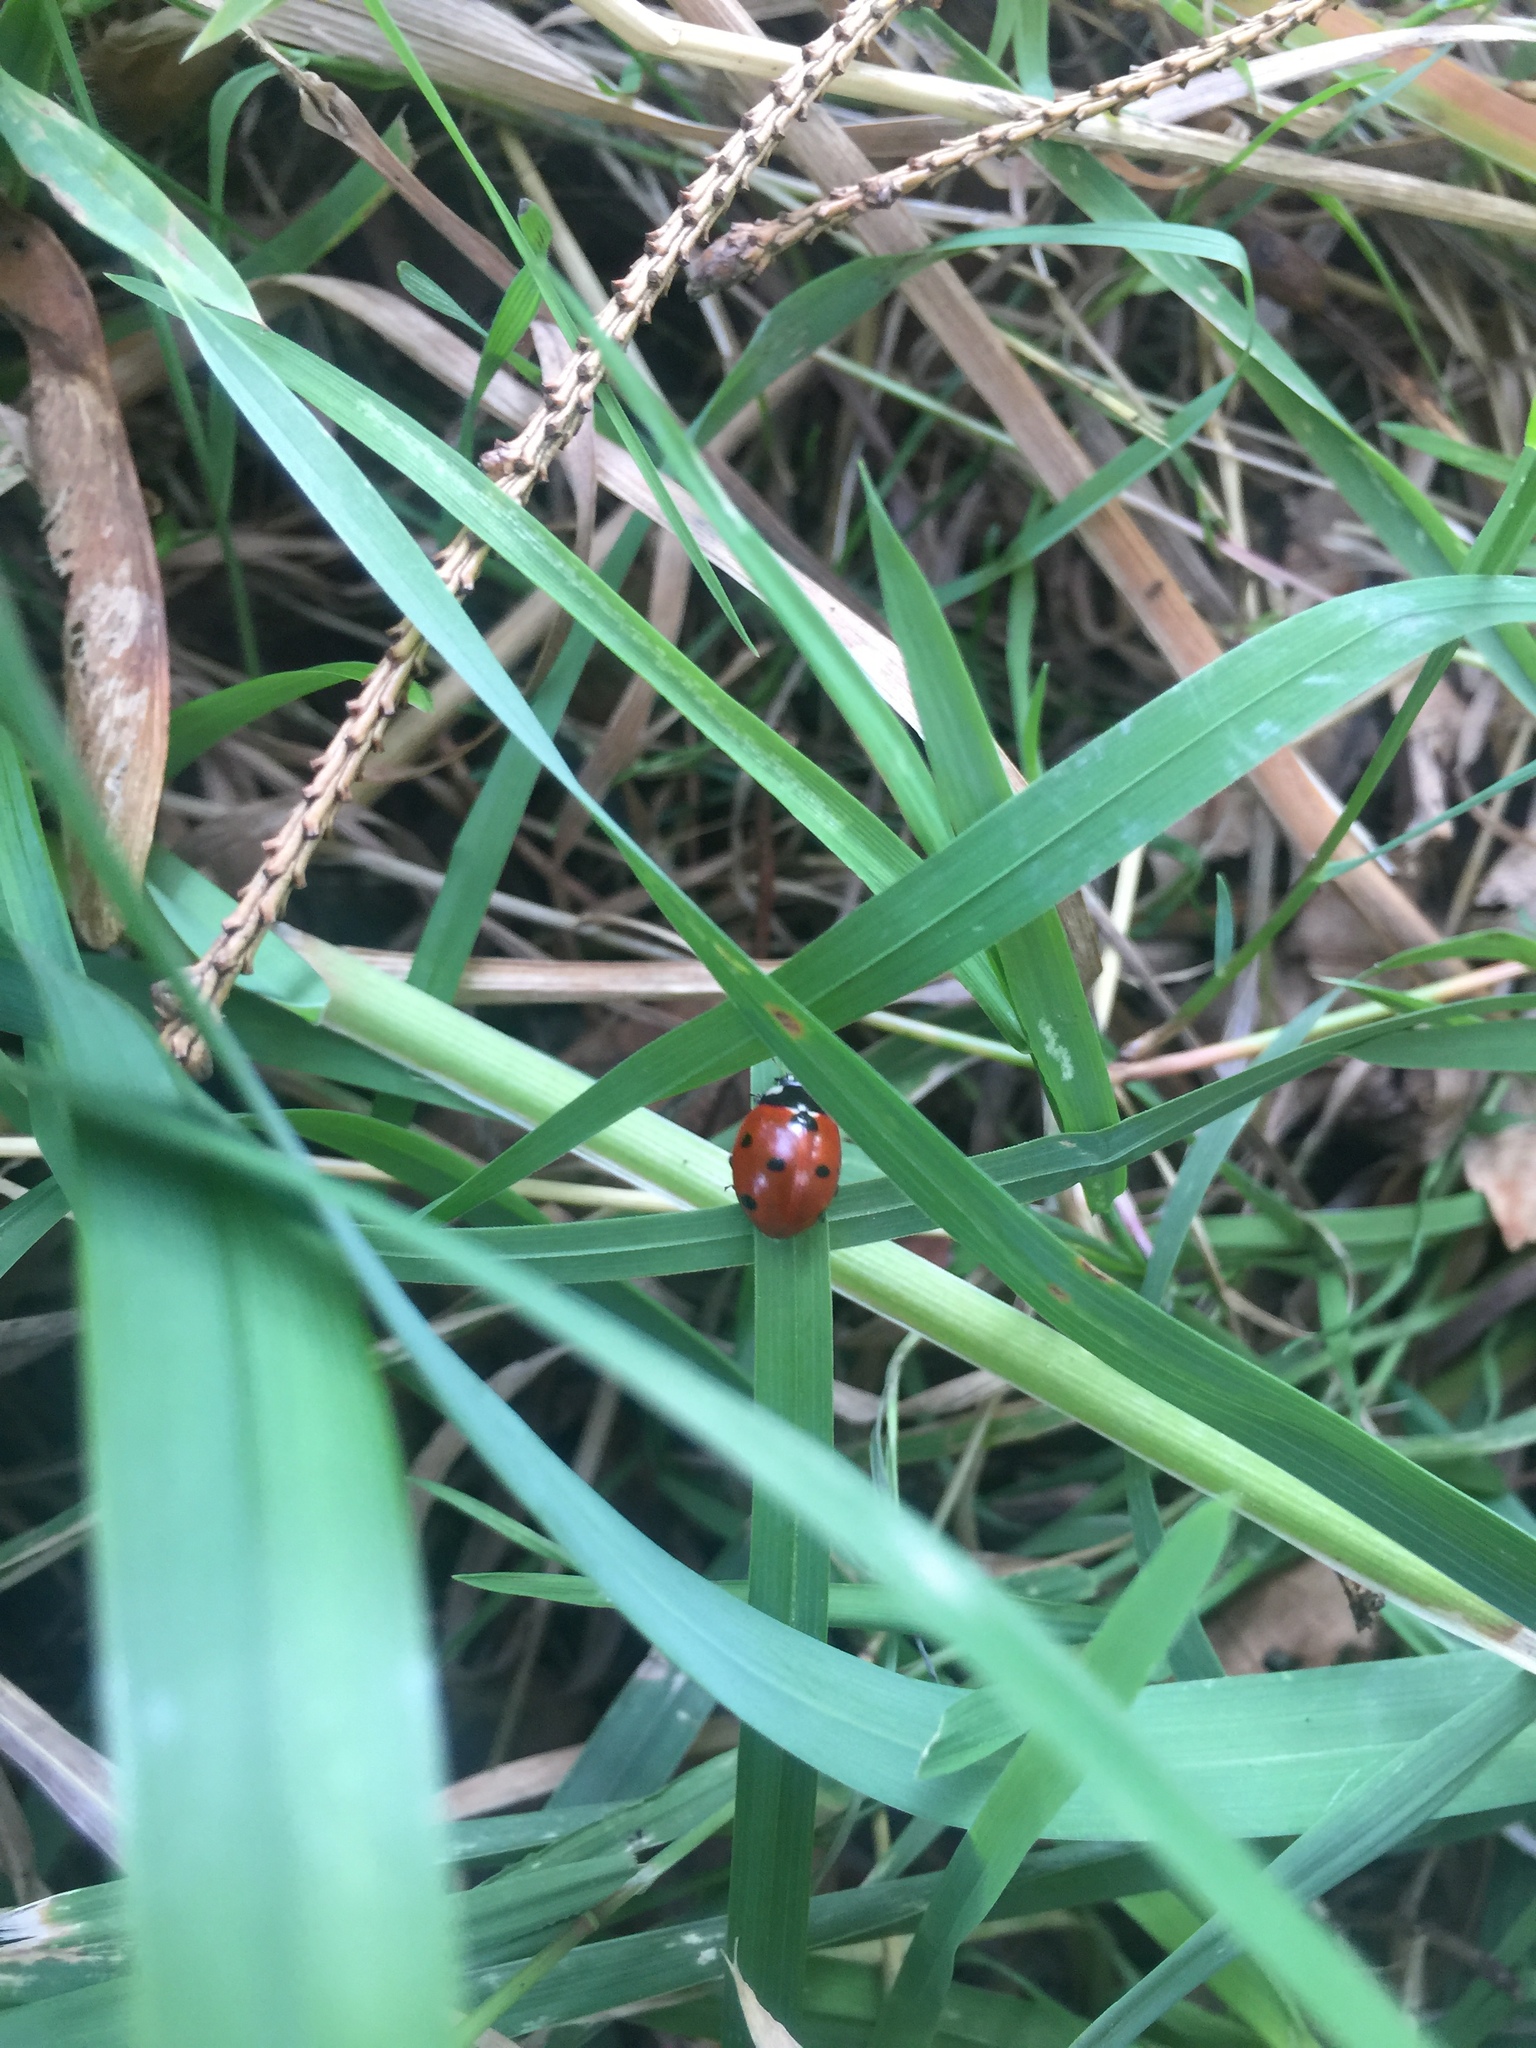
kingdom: Animalia
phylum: Arthropoda
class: Insecta
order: Coleoptera
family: Coccinellidae
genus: Coccinella
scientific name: Coccinella septempunctata
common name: Sevenspotted lady beetle
